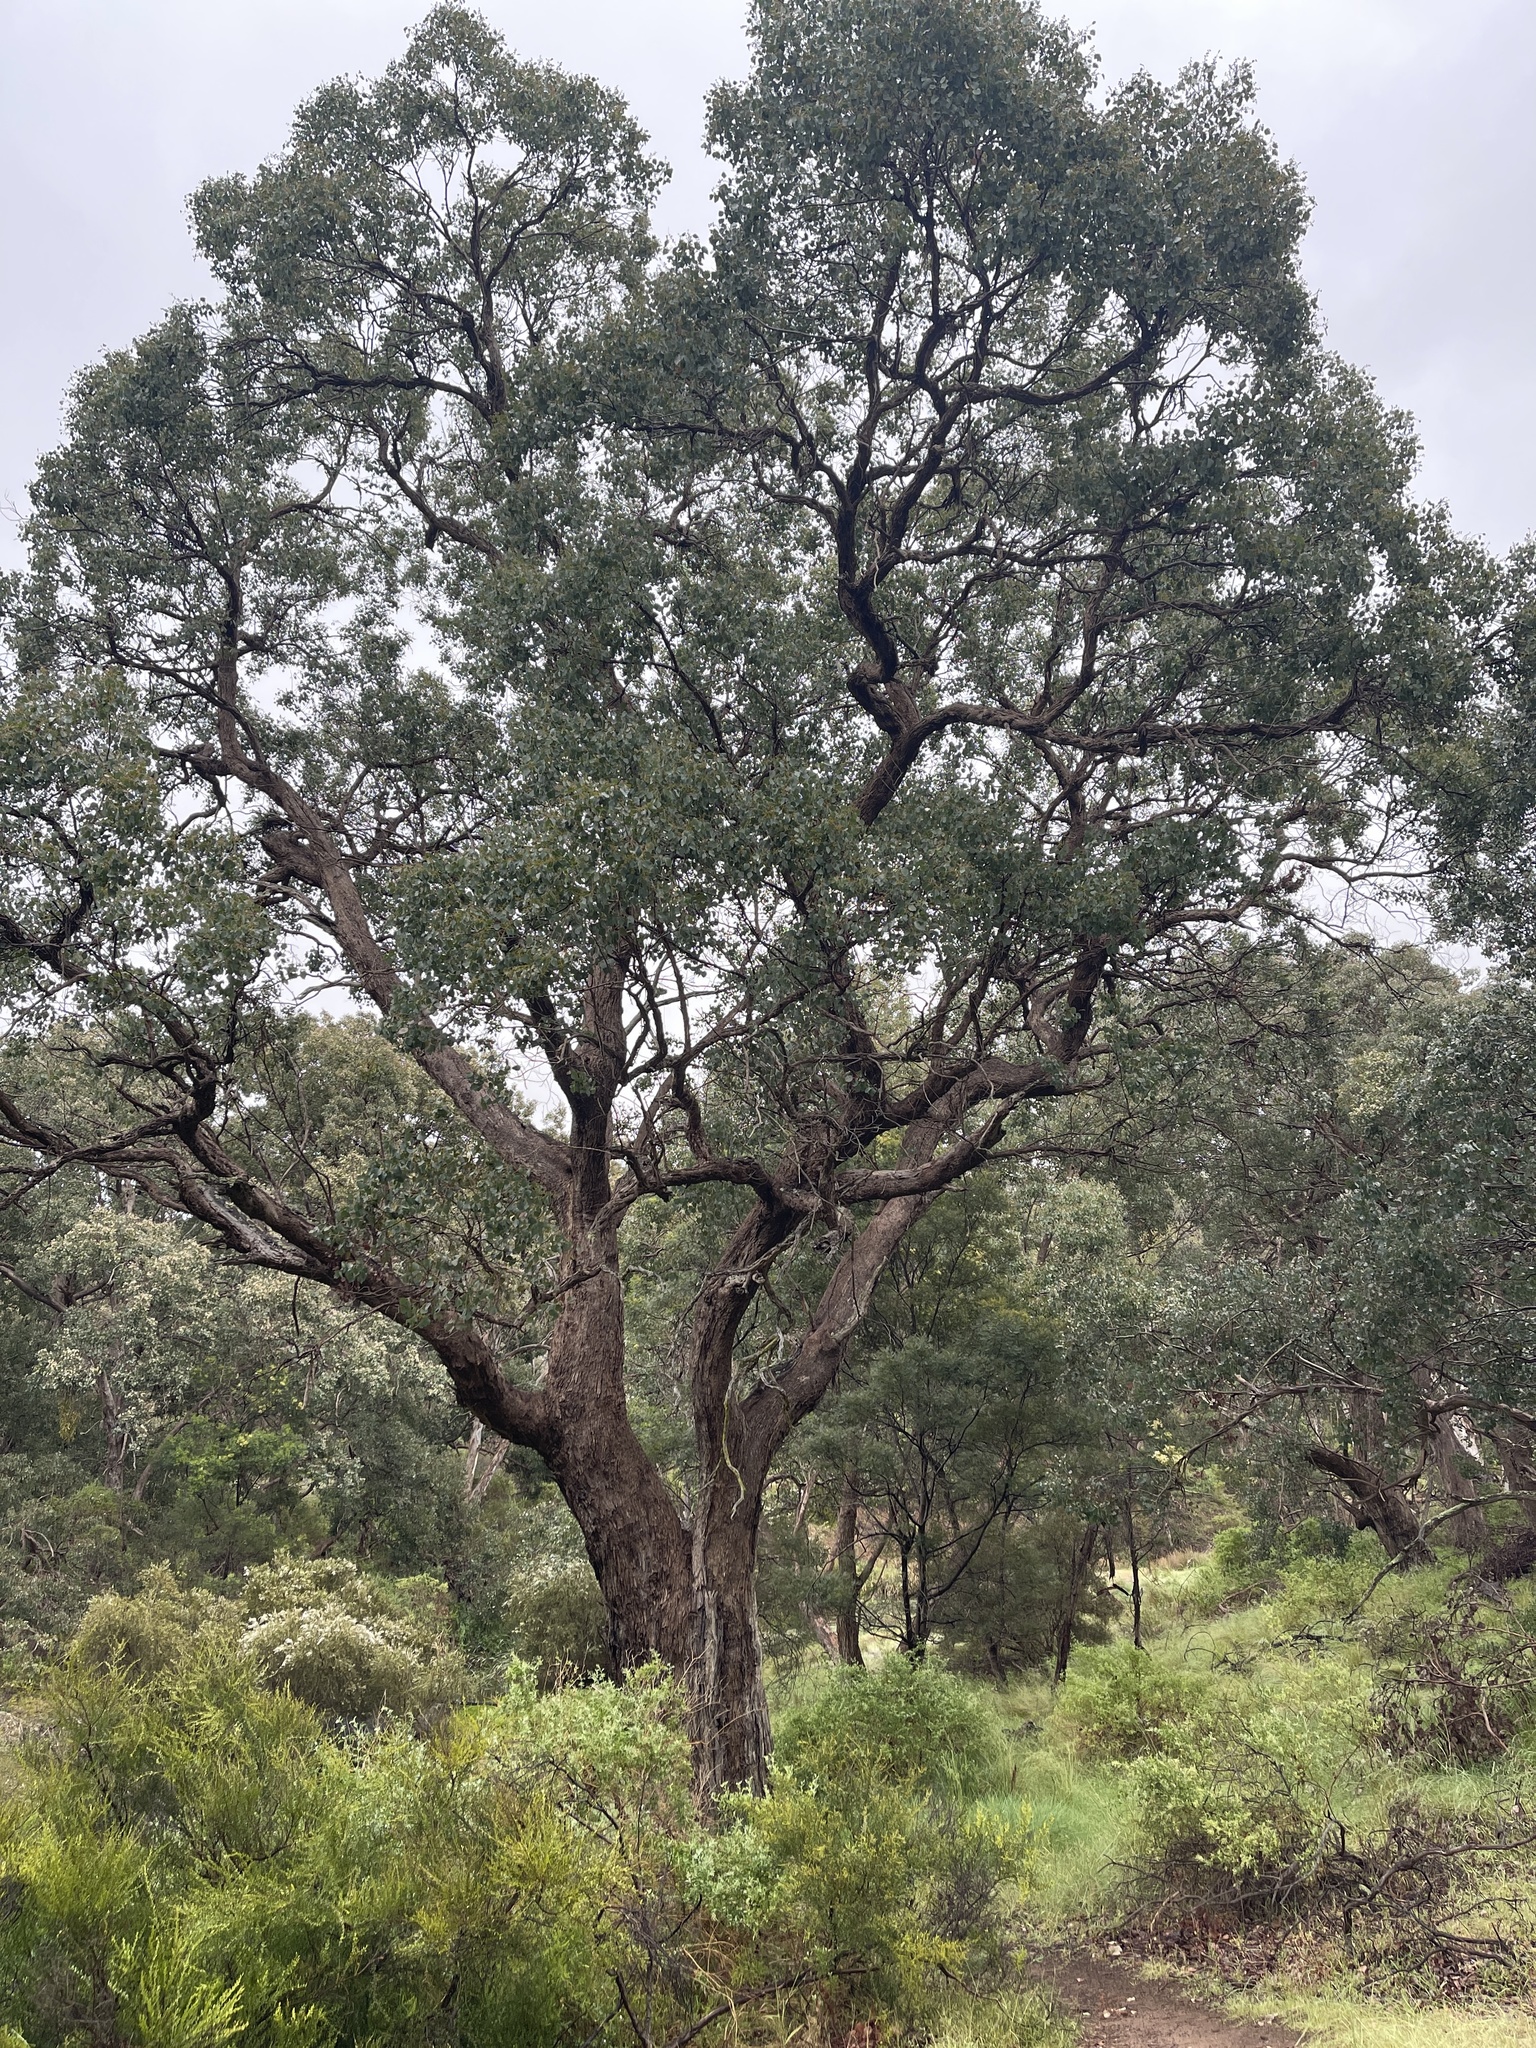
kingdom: Plantae
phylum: Tracheophyta
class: Magnoliopsida
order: Myrtales
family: Myrtaceae
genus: Eucalyptus
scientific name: Eucalyptus baueriana
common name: Round-leaf-box
